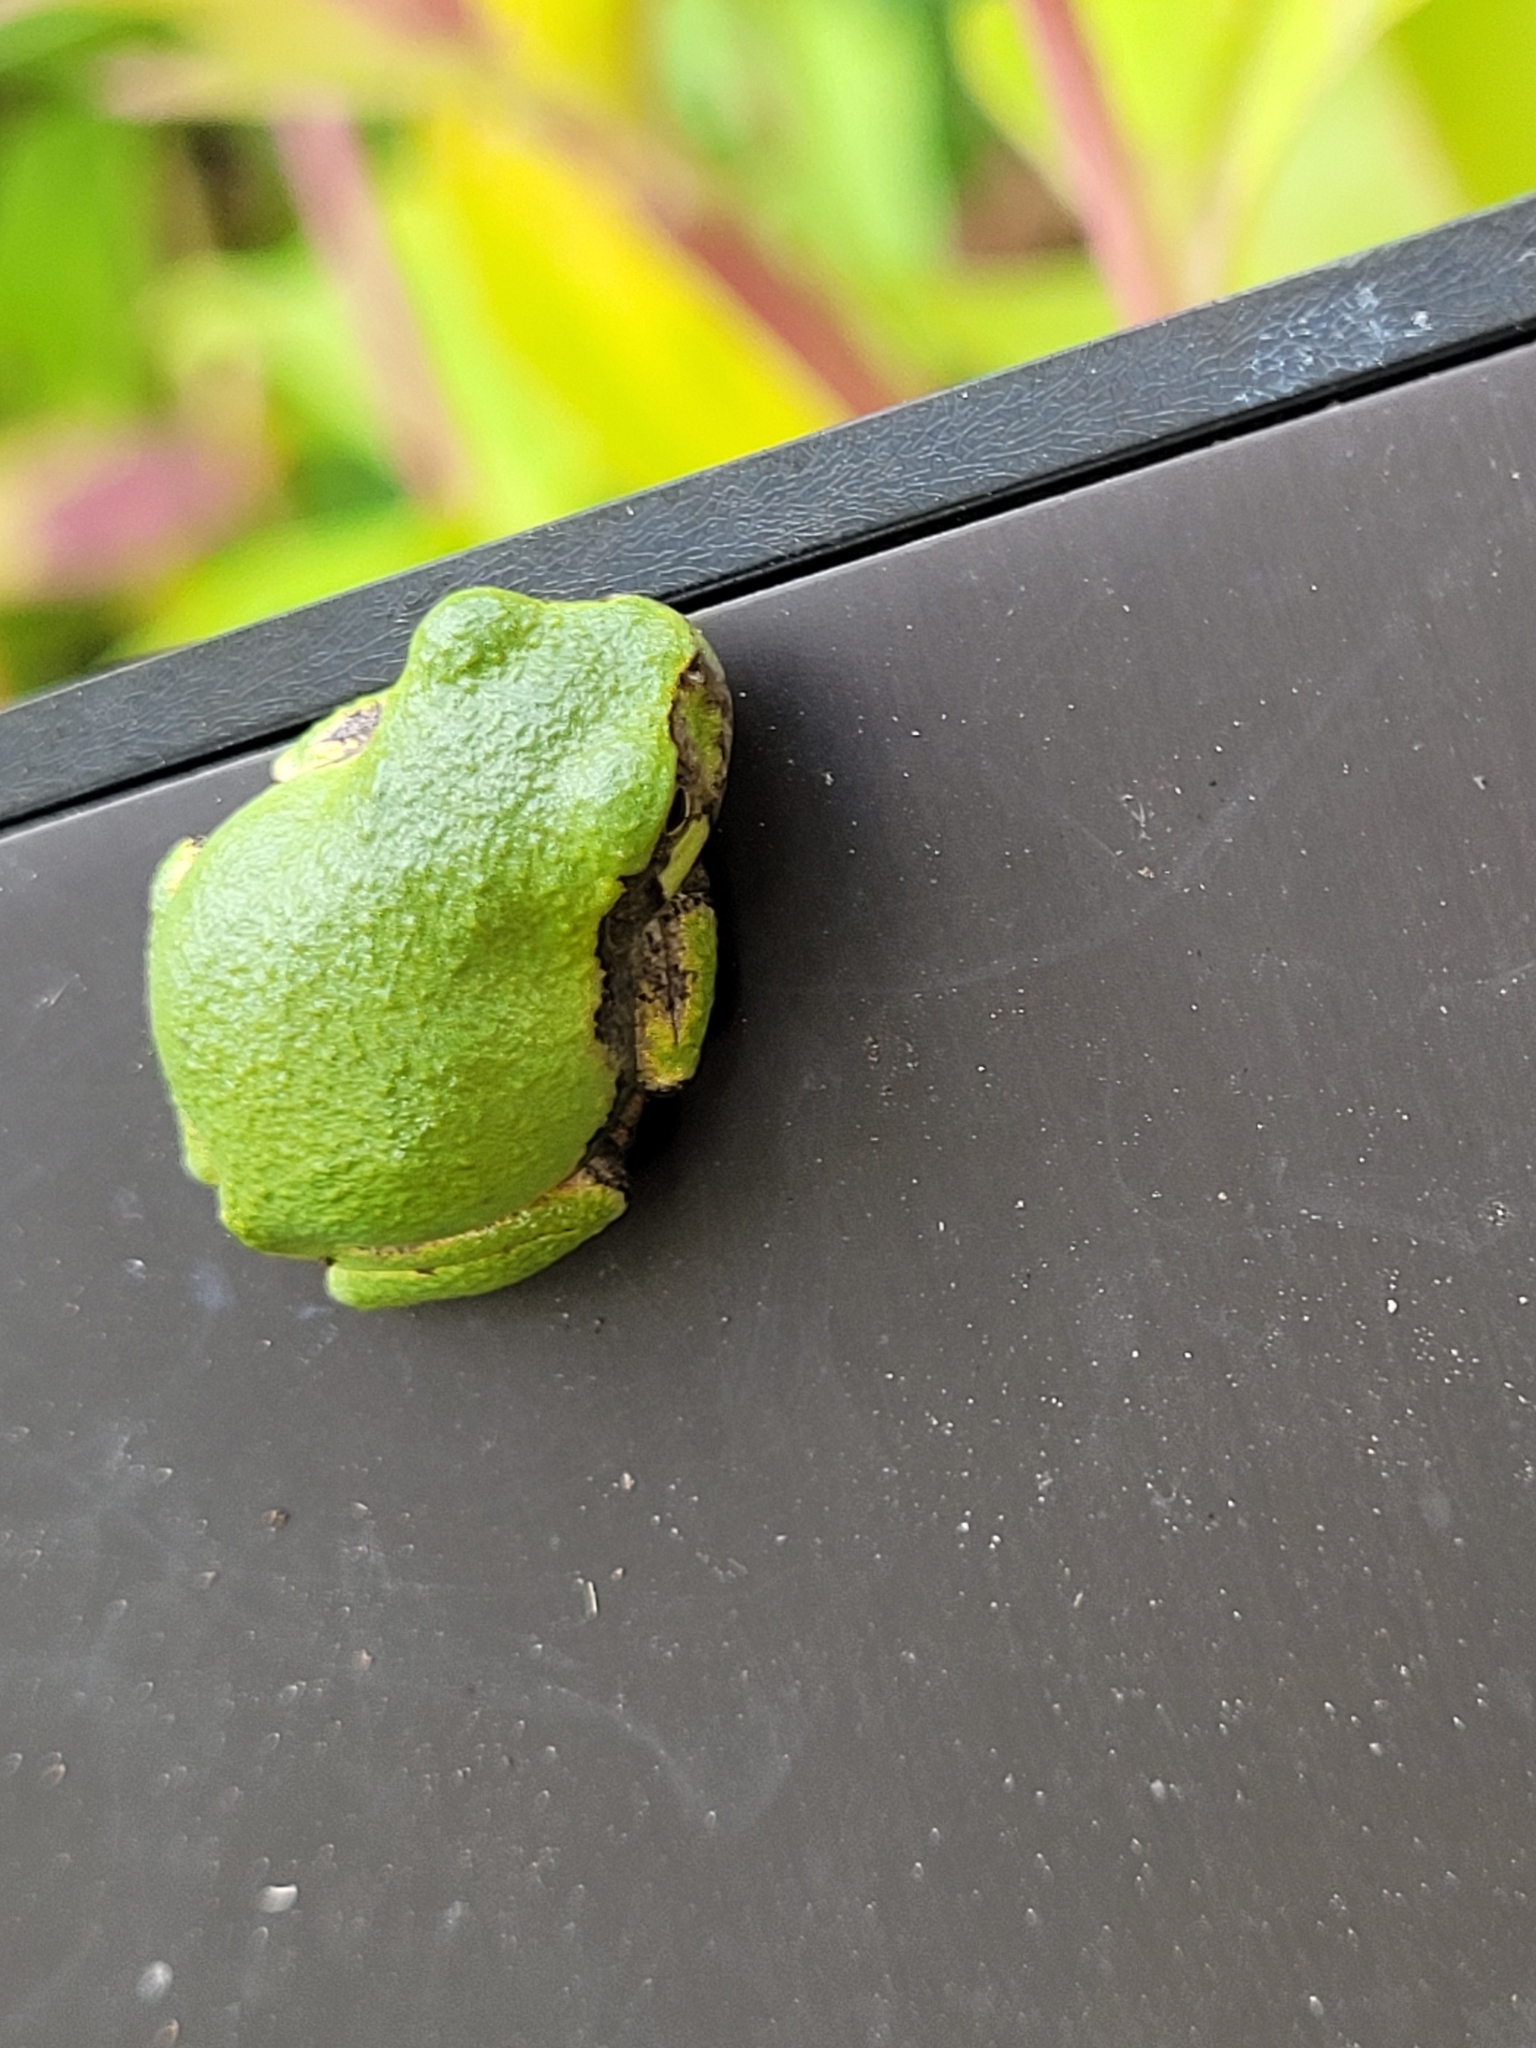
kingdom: Animalia
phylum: Chordata
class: Amphibia
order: Anura
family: Hylidae
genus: Dryophytes
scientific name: Dryophytes versicolor
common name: Gray treefrog
